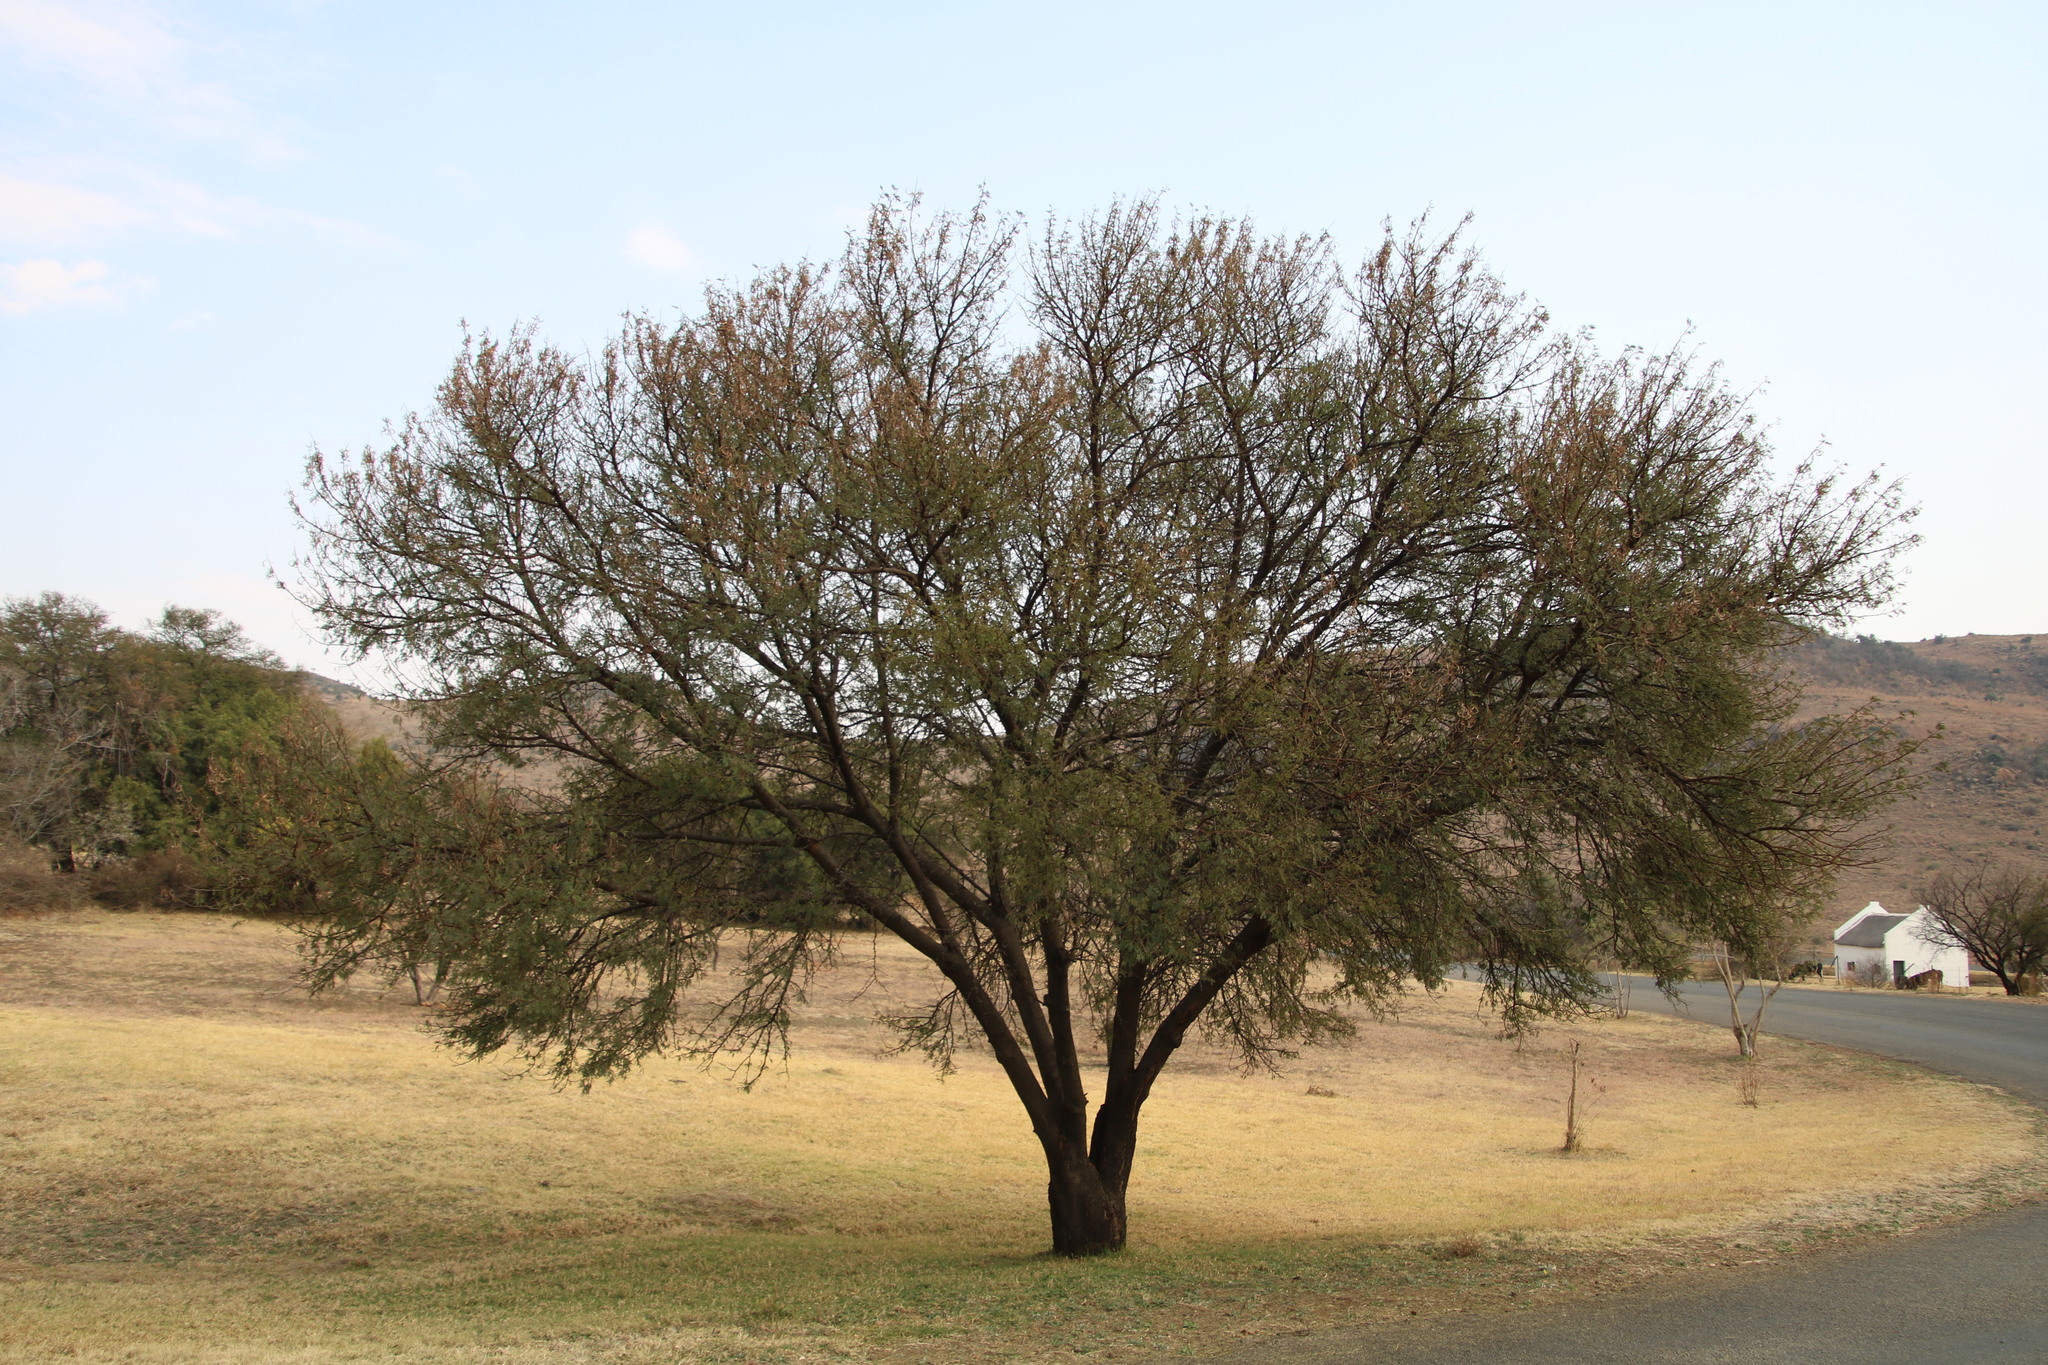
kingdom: Plantae
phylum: Tracheophyta
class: Magnoliopsida
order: Fabales
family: Fabaceae
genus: Vachellia
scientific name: Vachellia karroo
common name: Sweet thorn
